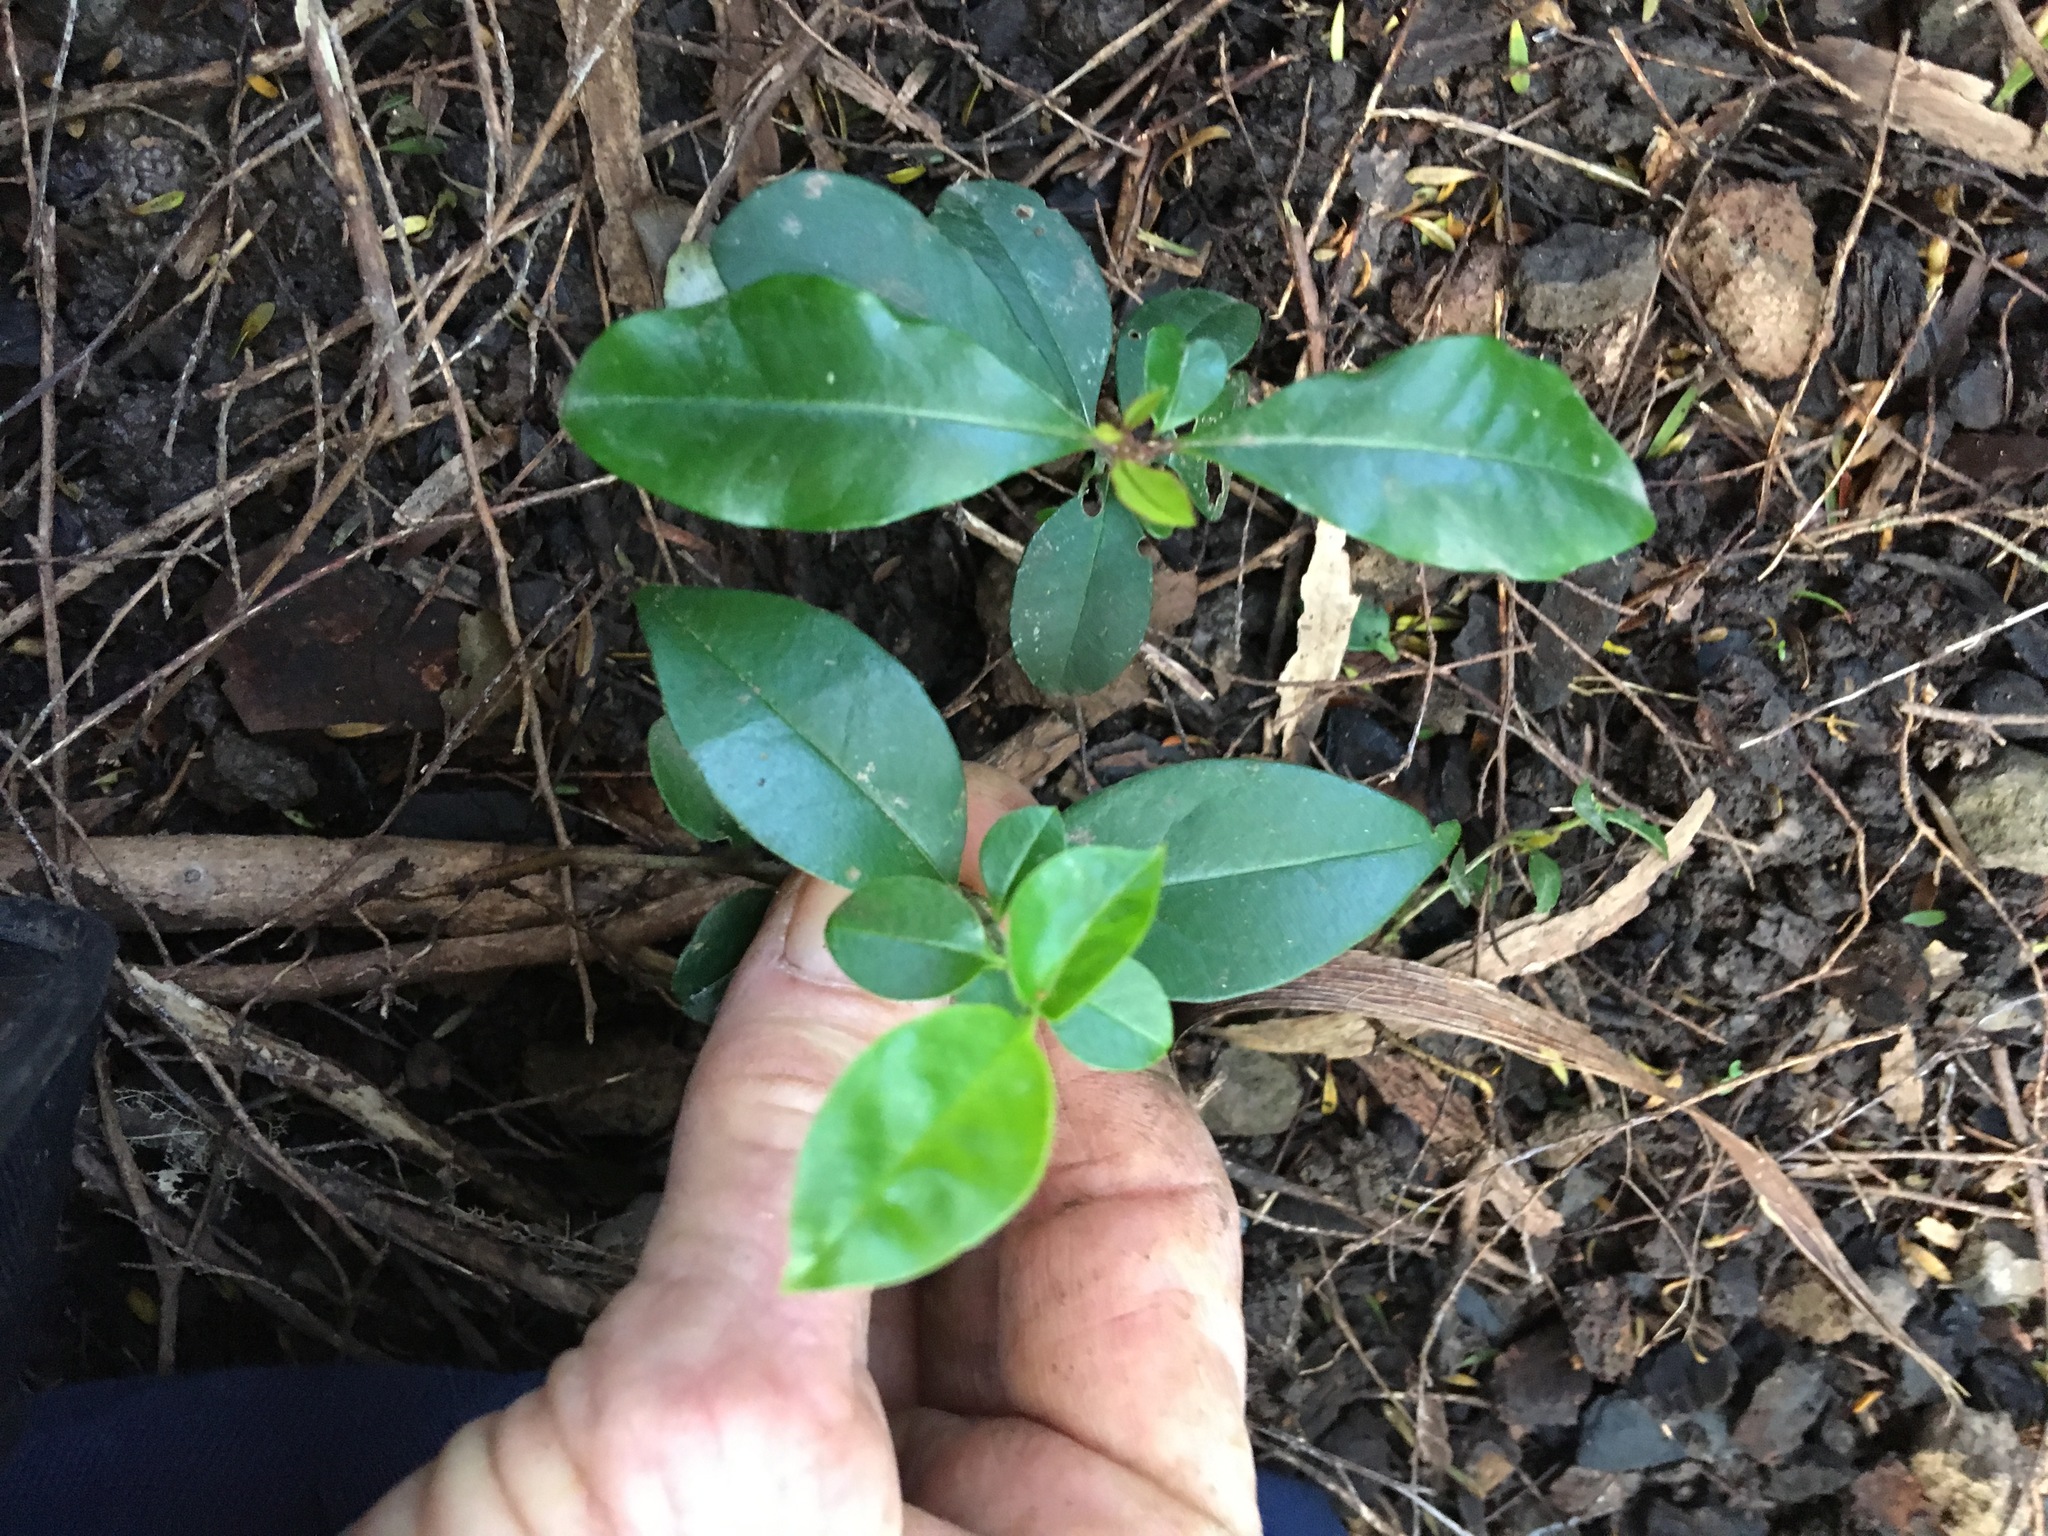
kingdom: Plantae
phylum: Tracheophyta
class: Magnoliopsida
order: Lamiales
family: Oleaceae
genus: Ligustrum
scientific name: Ligustrum lucidum
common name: Glossy privet
